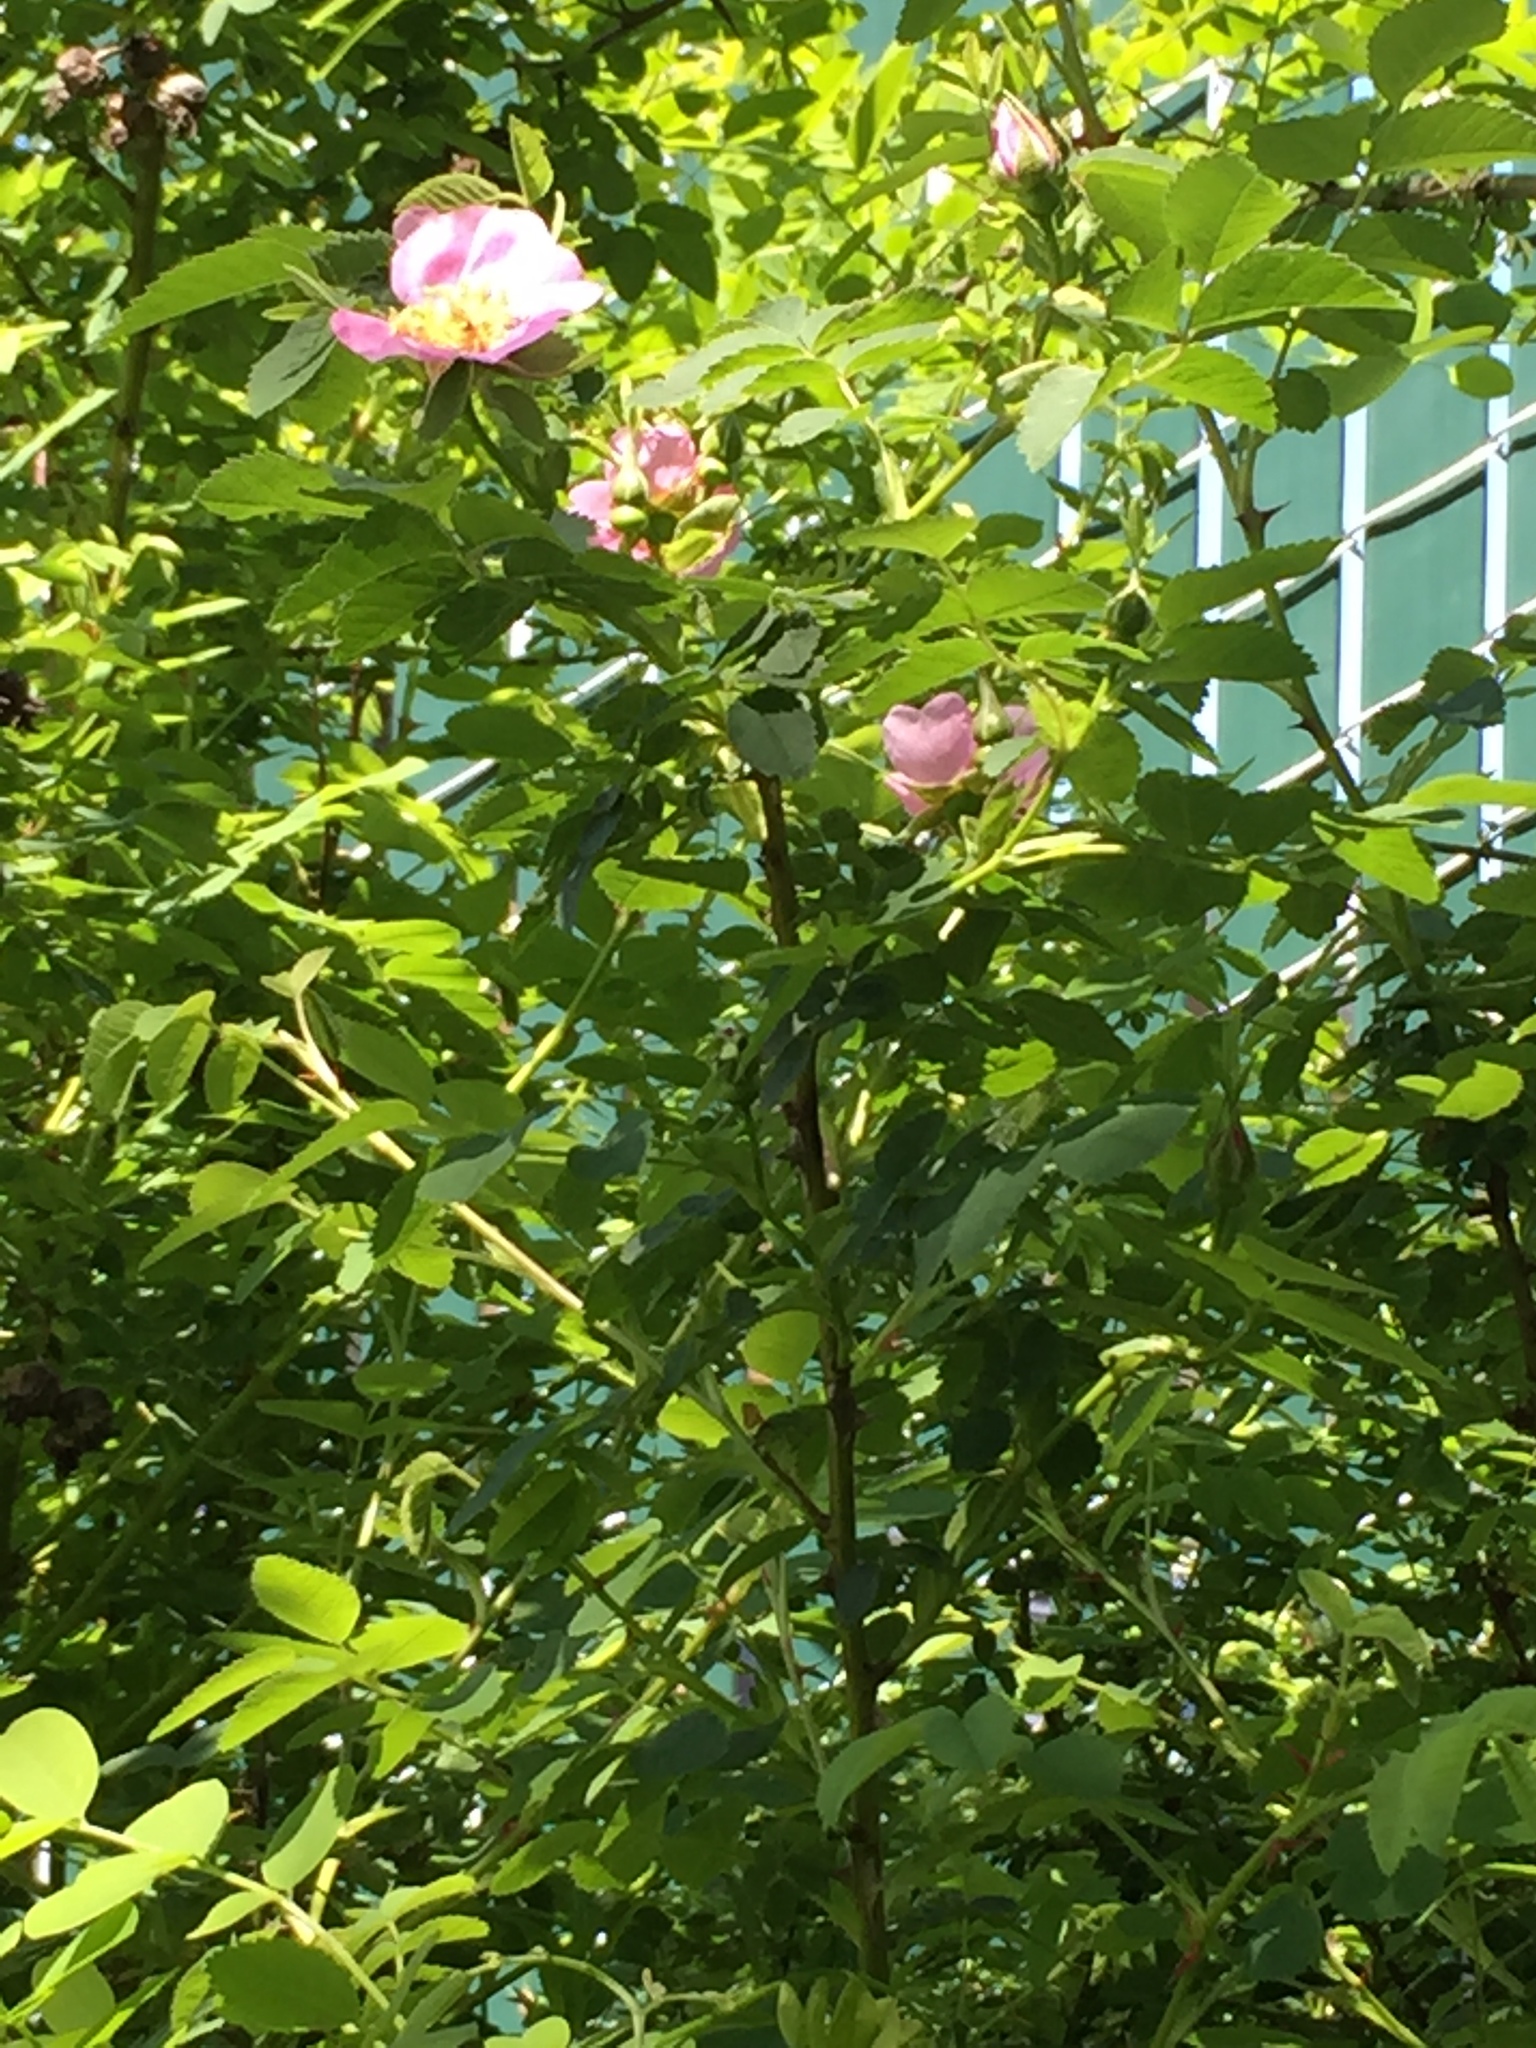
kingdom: Plantae
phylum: Tracheophyta
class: Magnoliopsida
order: Rosales
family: Rosaceae
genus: Rosa
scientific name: Rosa nutkana
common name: Nootka rose
